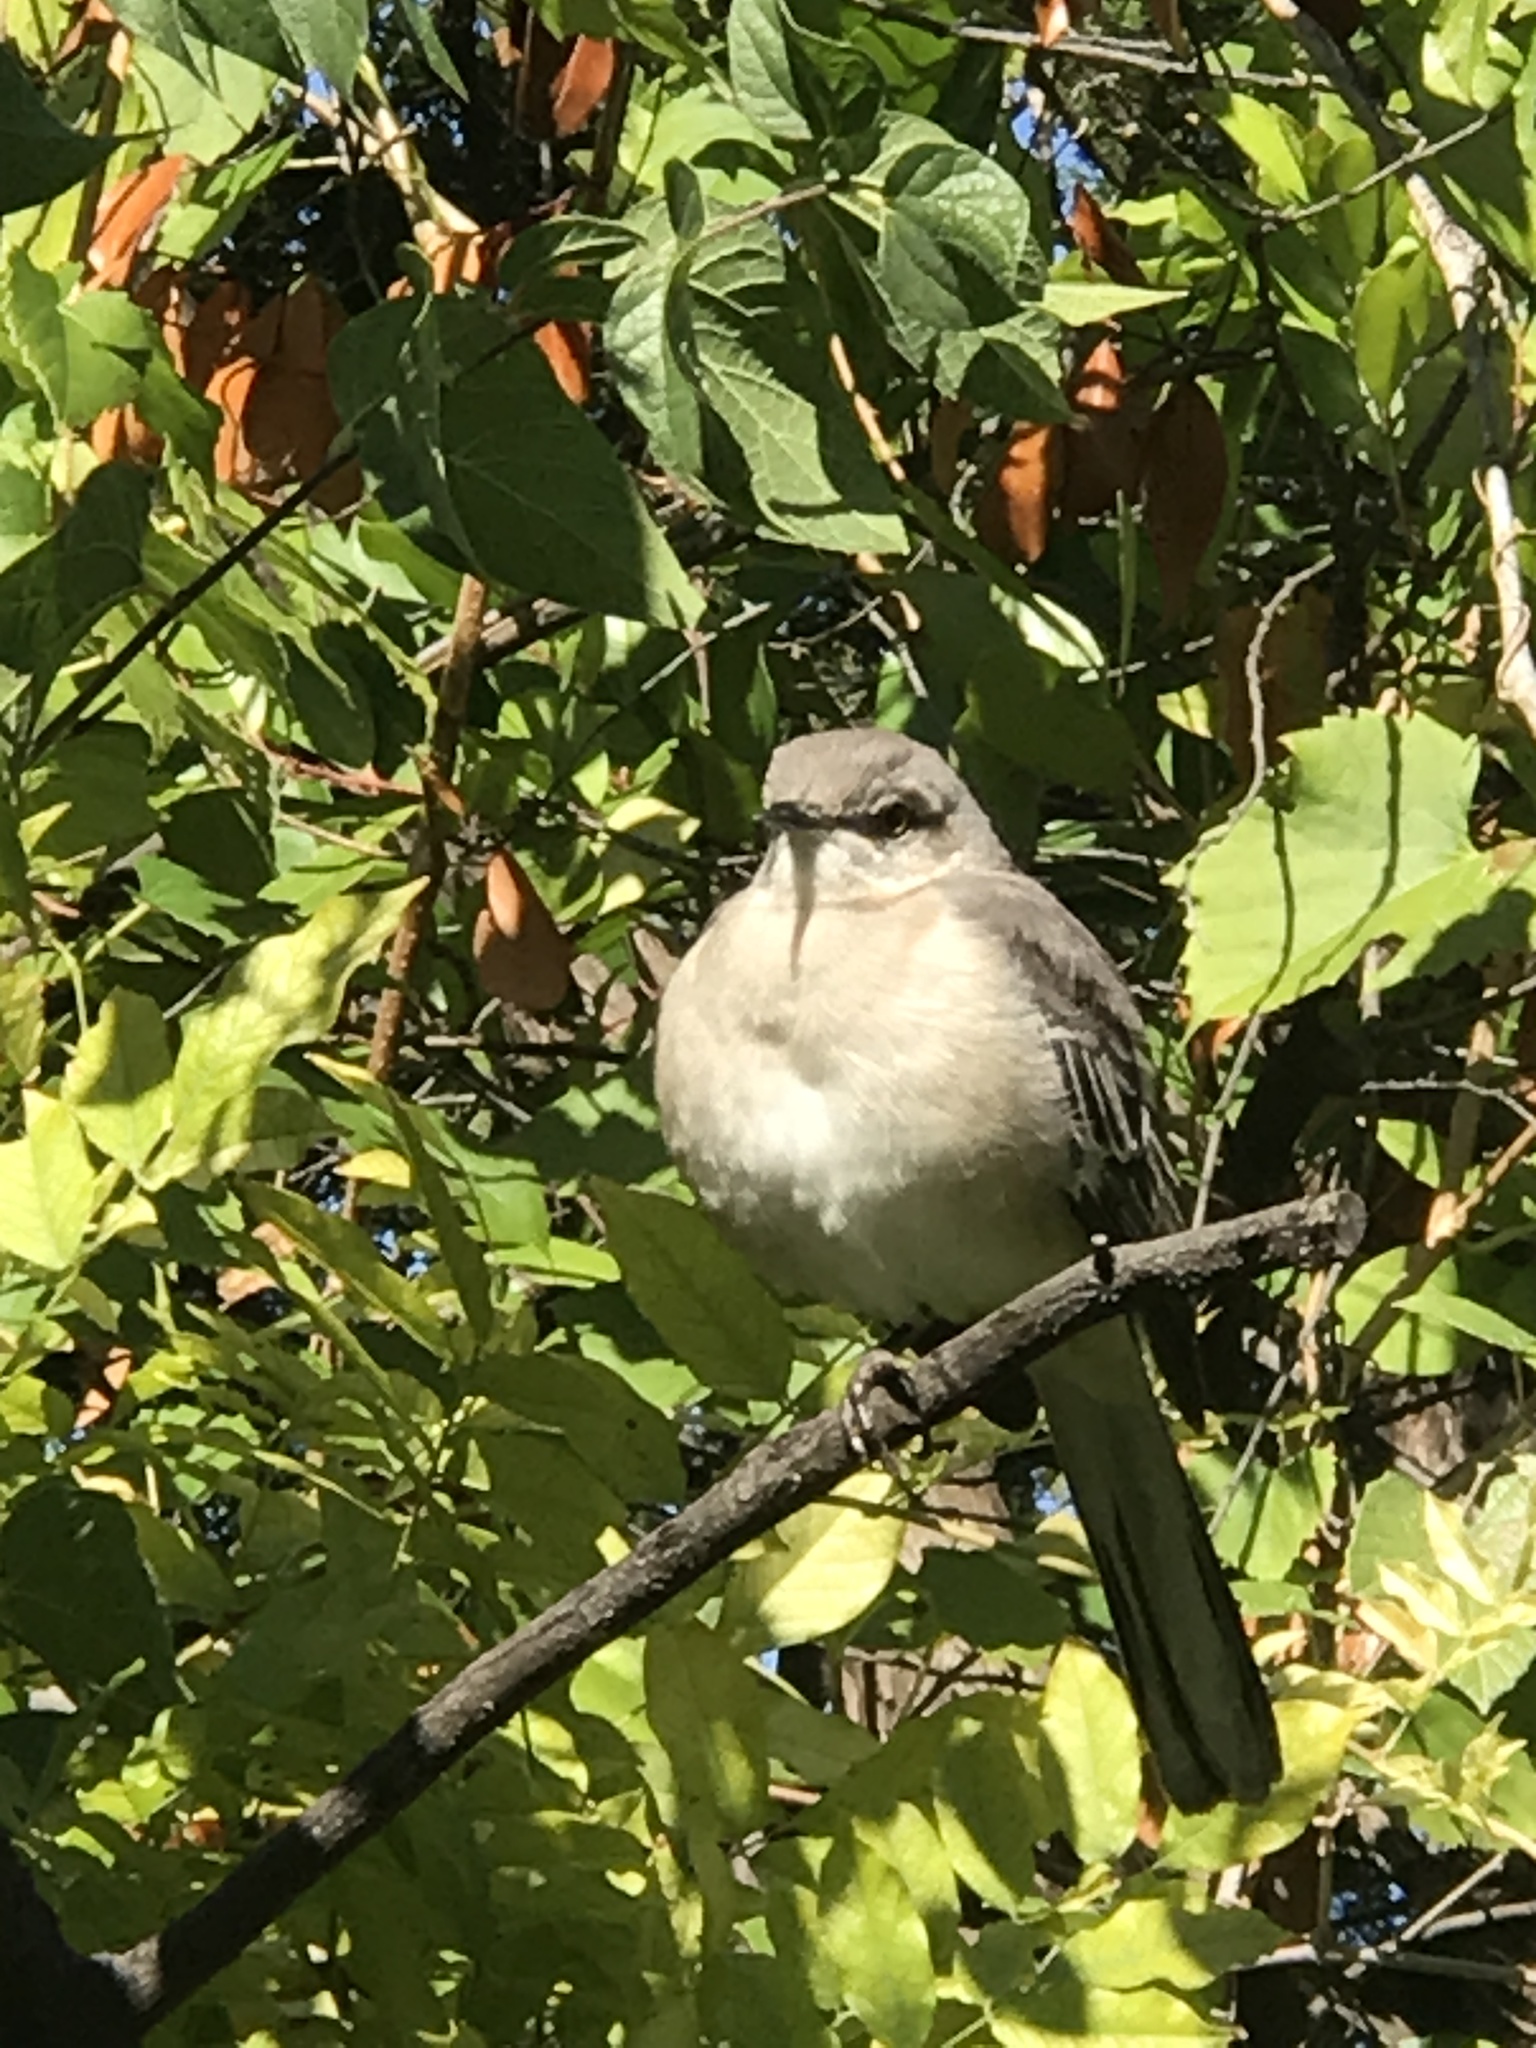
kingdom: Animalia
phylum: Chordata
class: Aves
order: Passeriformes
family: Mimidae
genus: Mimus
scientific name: Mimus polyglottos
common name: Northern mockingbird
